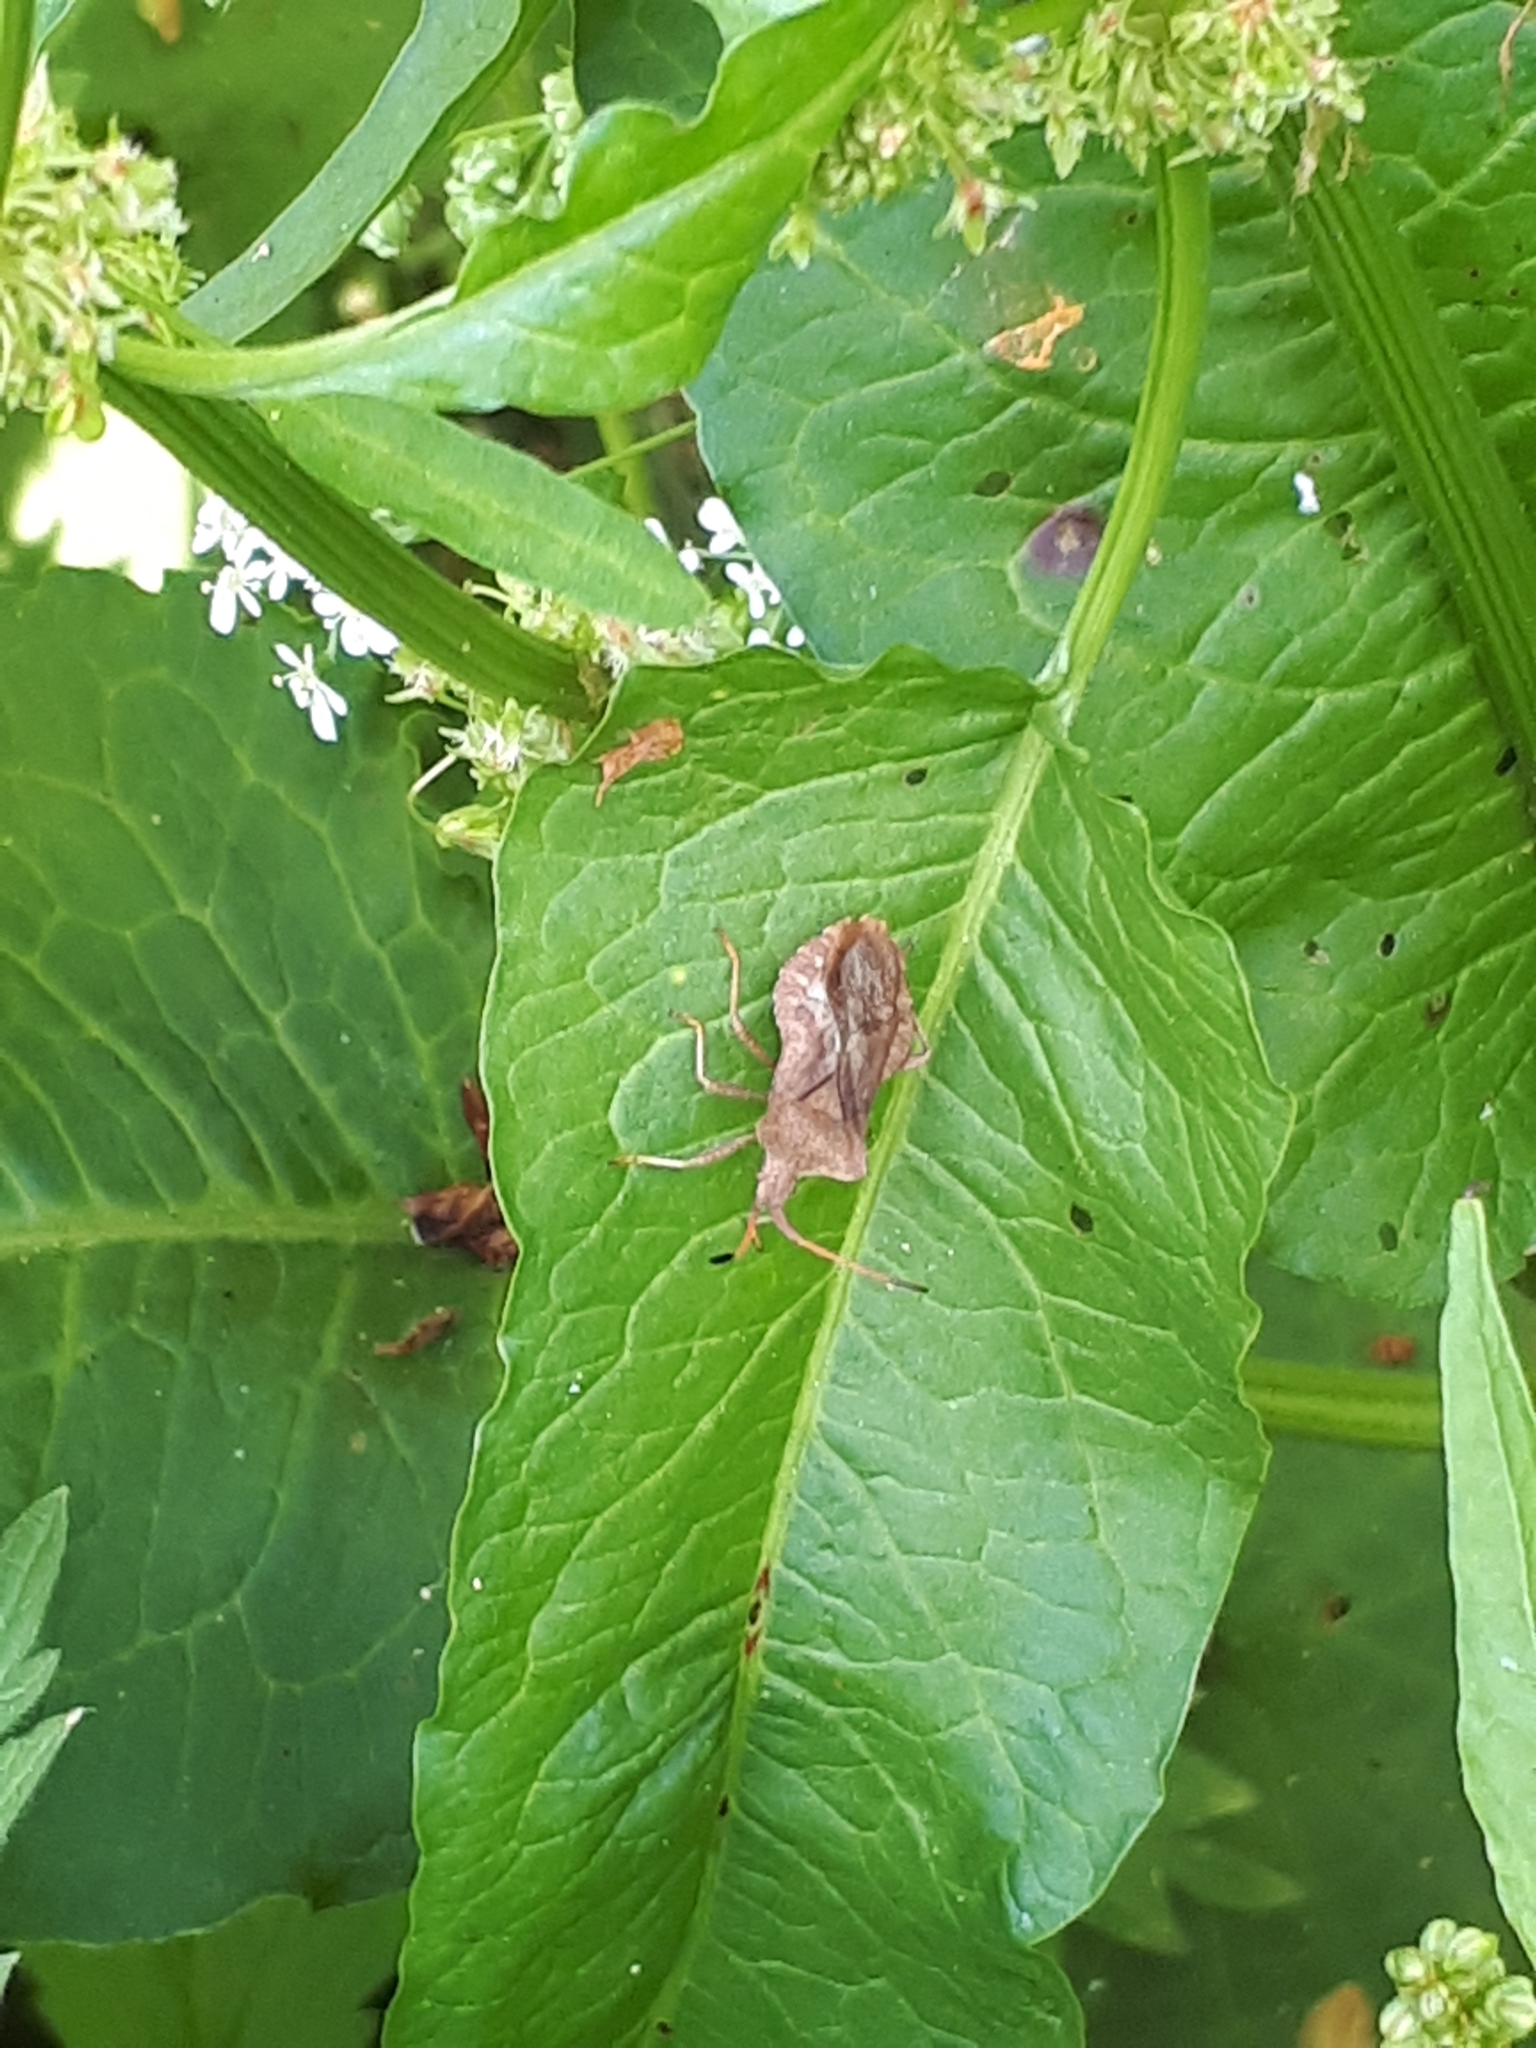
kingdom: Animalia
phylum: Arthropoda
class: Insecta
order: Hemiptera
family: Coreidae
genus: Coreus
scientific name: Coreus marginatus
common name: Dock bug
